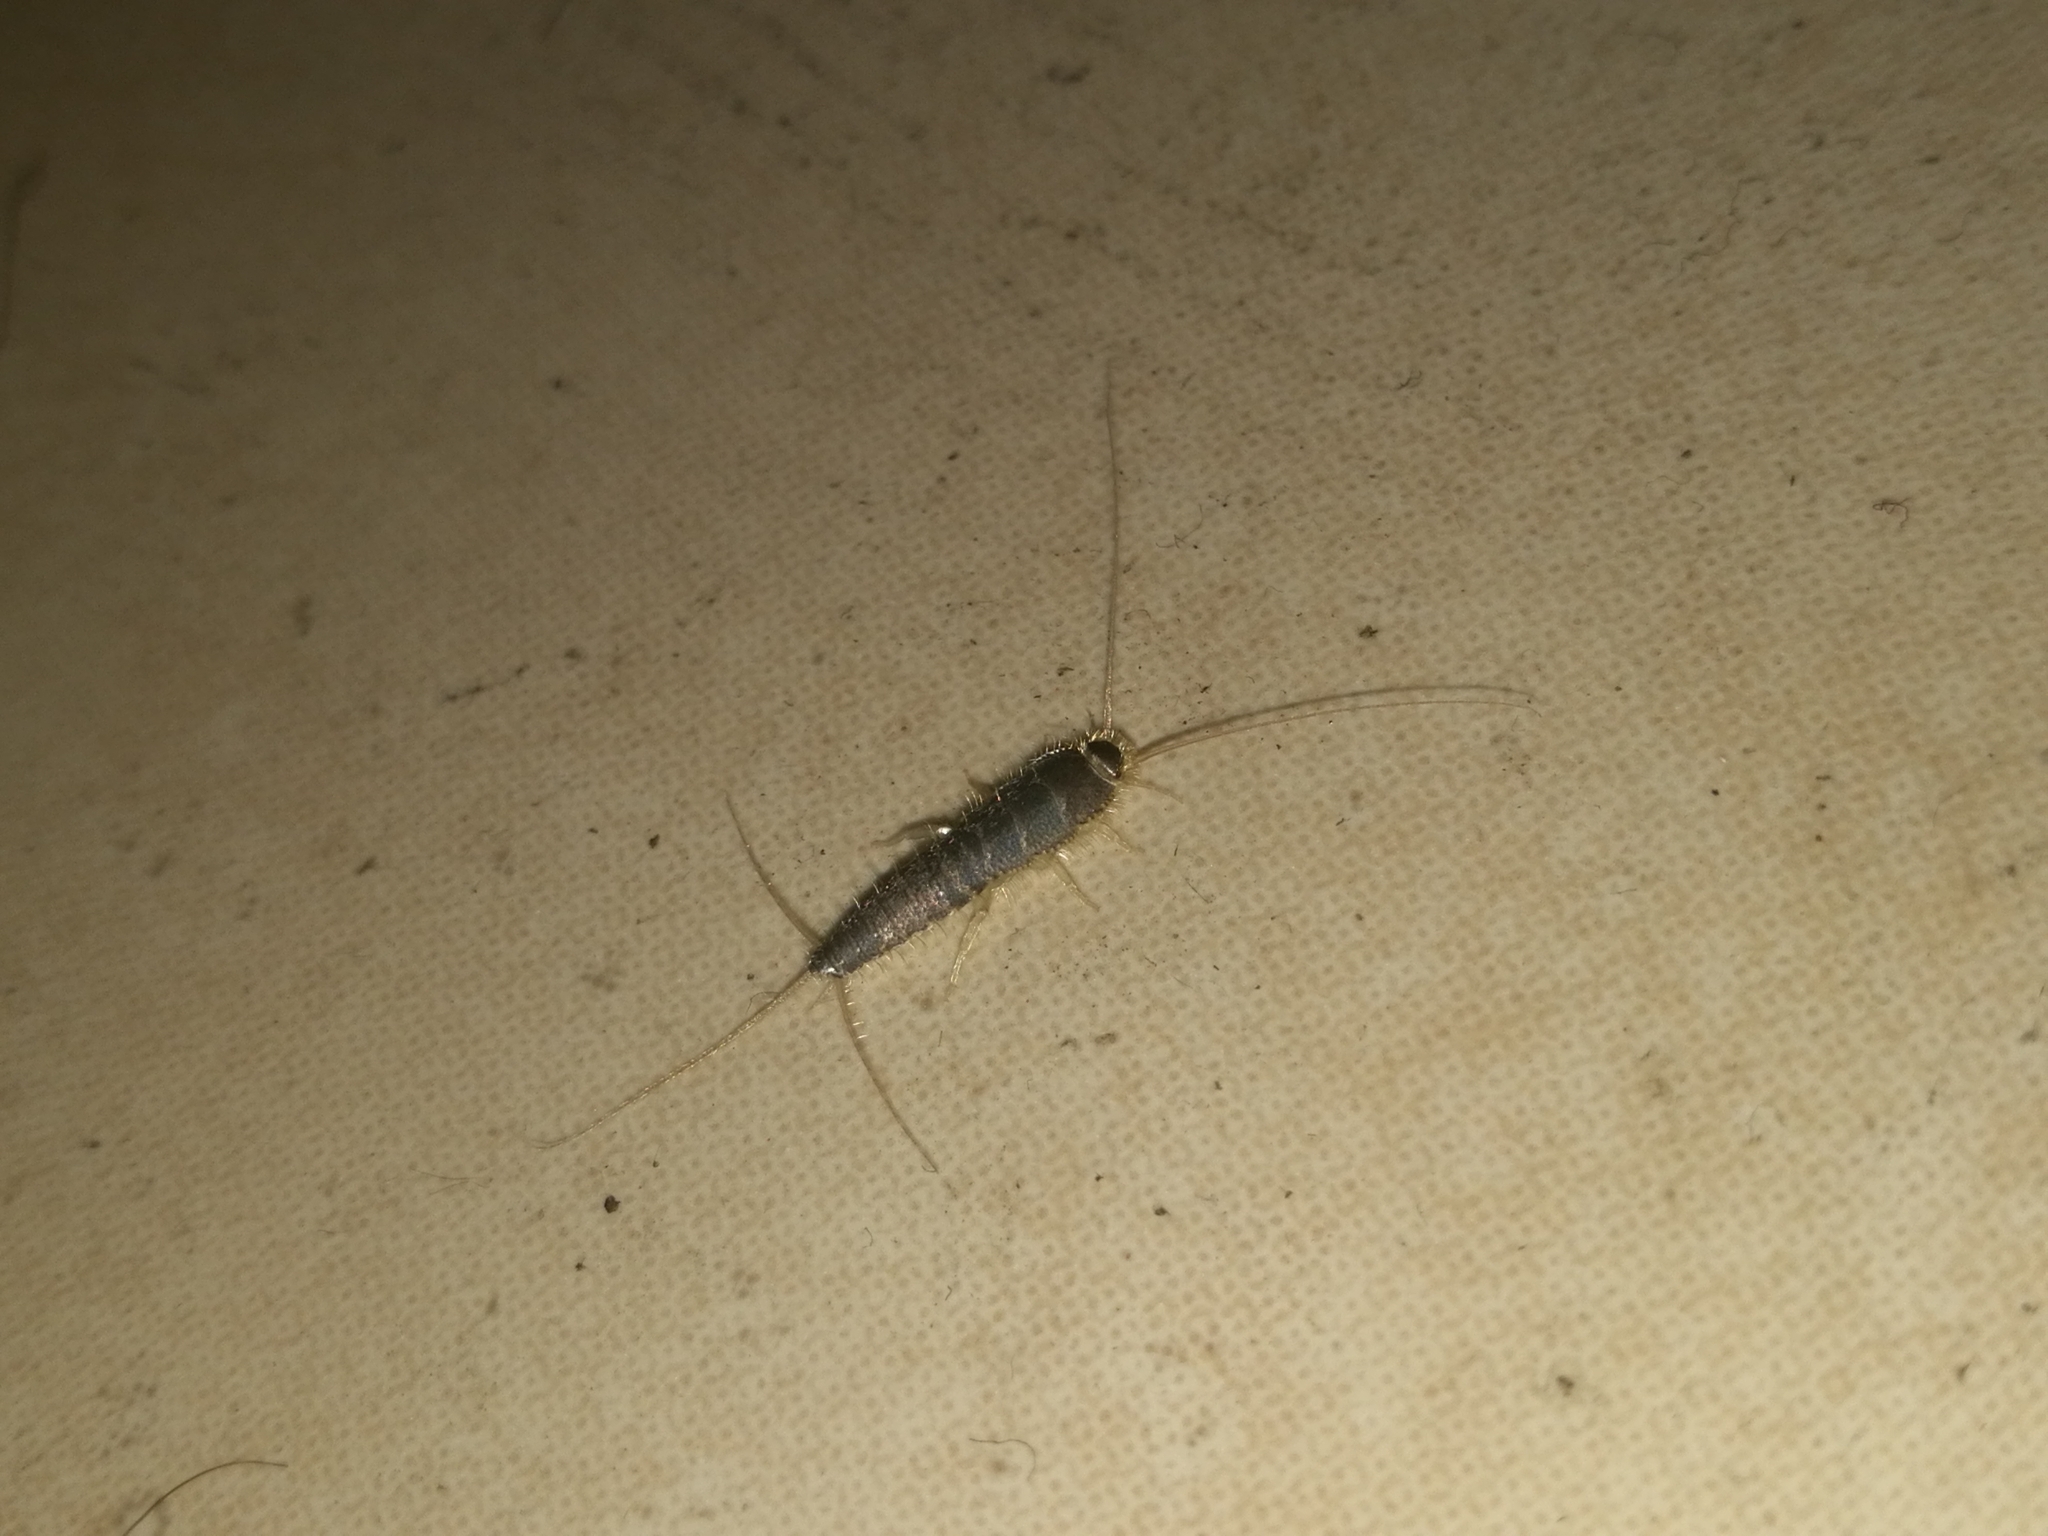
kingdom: Animalia
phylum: Arthropoda
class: Insecta
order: Zygentoma
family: Lepismatidae
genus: Ctenolepisma
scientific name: Ctenolepisma longicaudatum
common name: Silverfish
